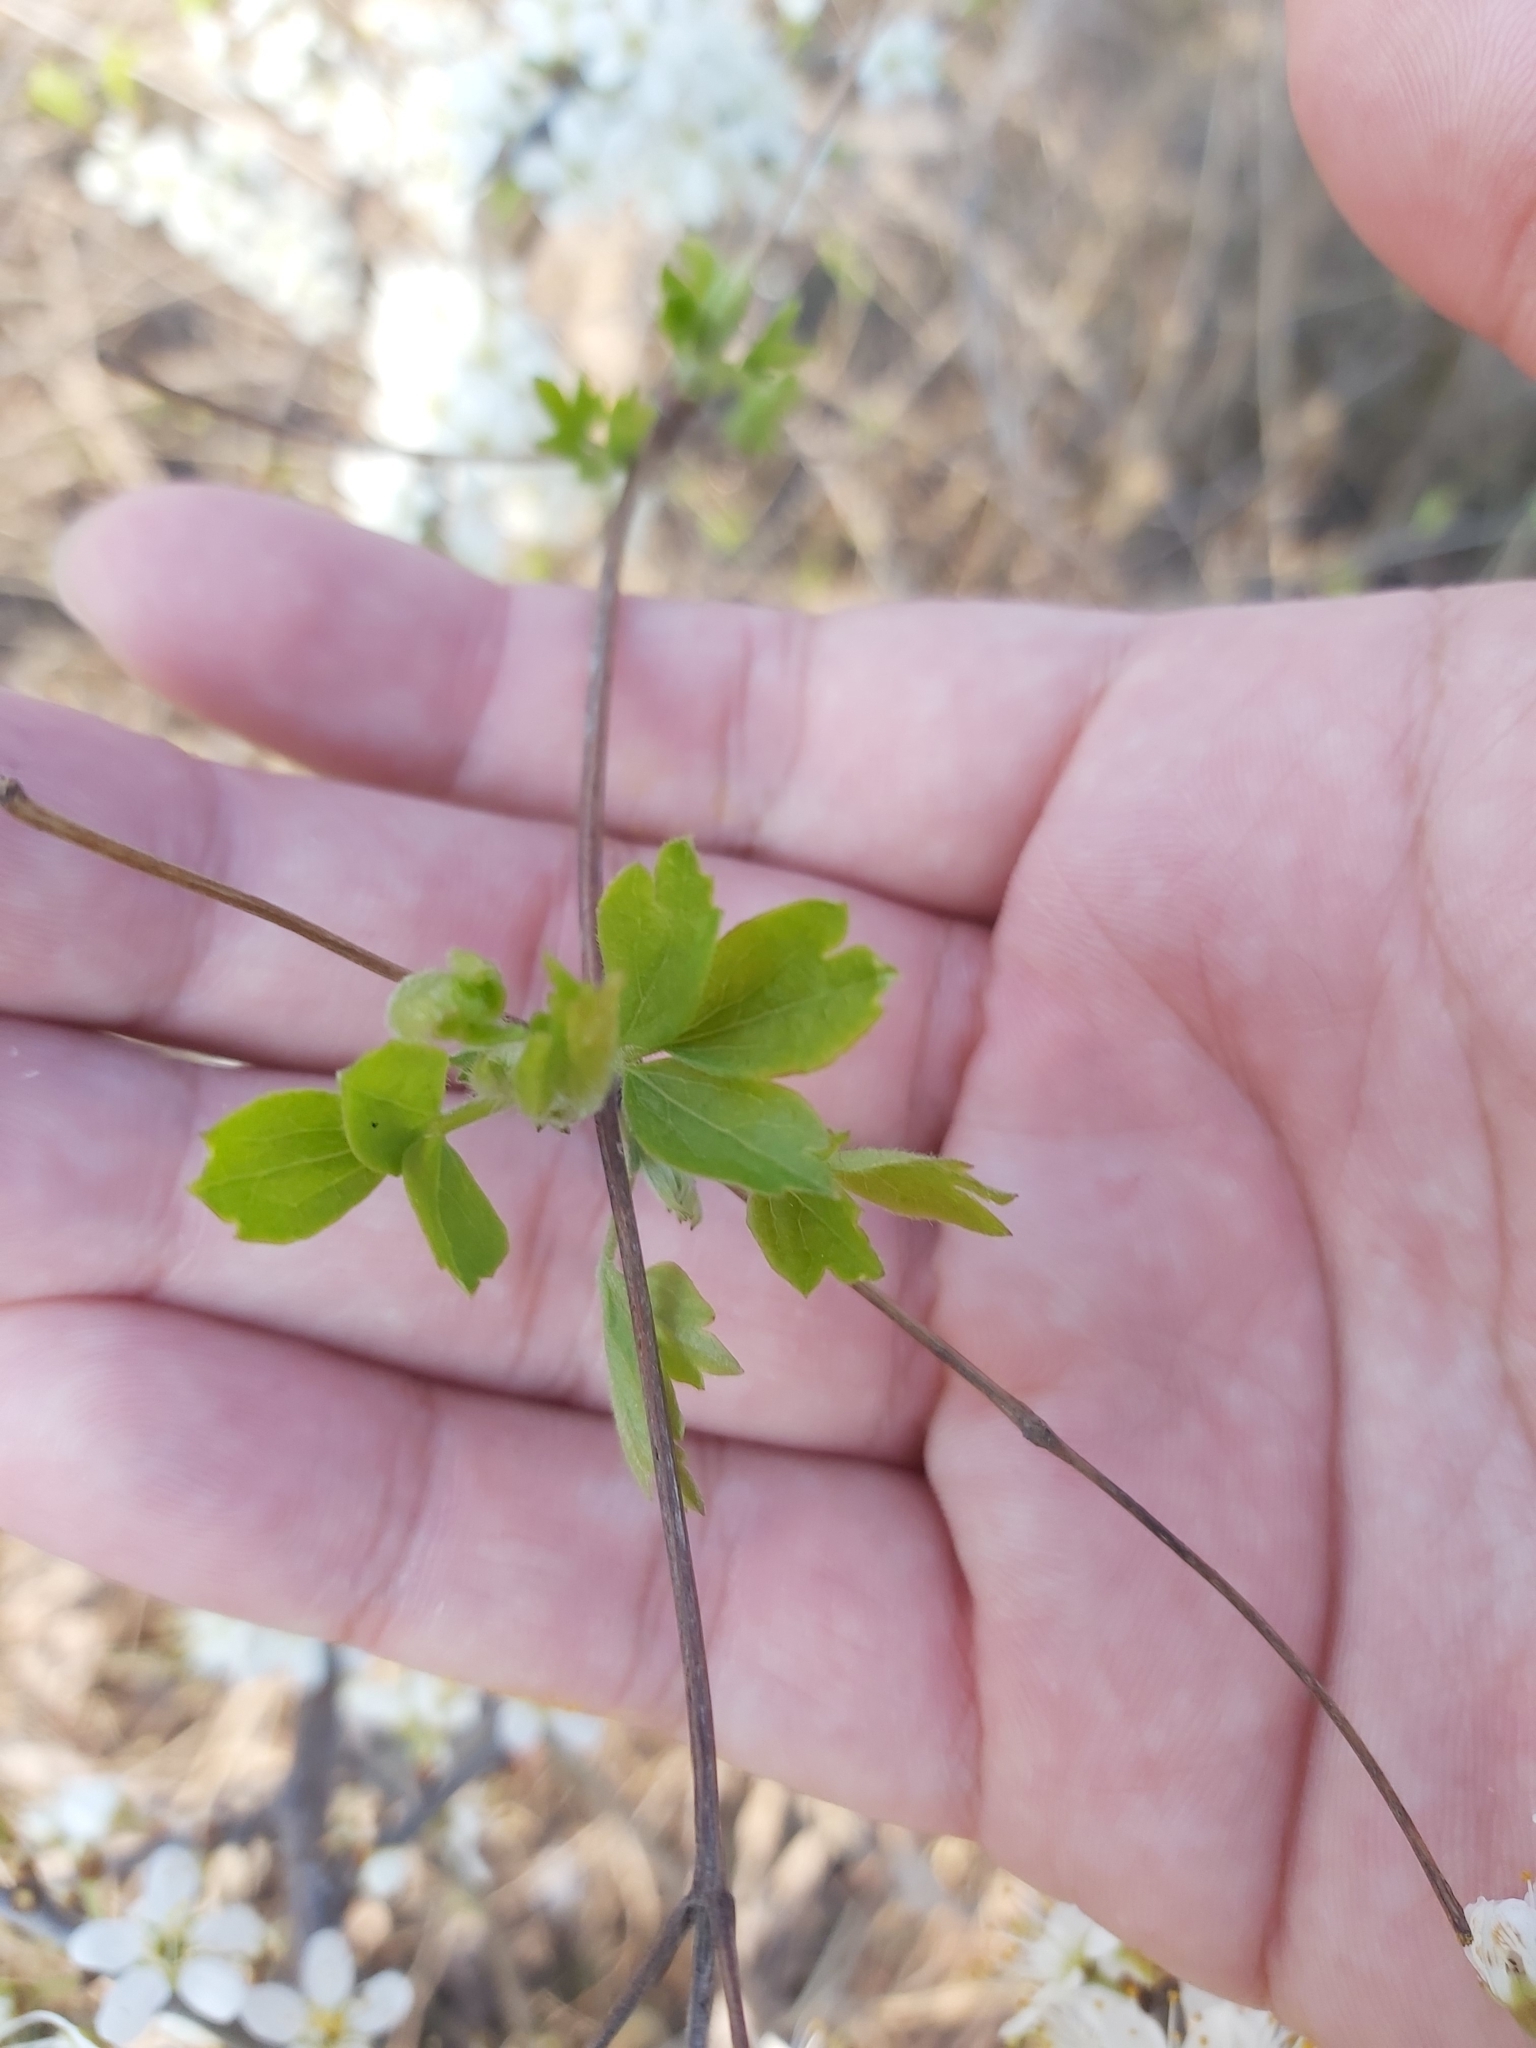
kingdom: Plantae
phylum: Tracheophyta
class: Magnoliopsida
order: Rosales
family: Rosaceae
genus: Prunus
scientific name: Prunus spinosa
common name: Blackthorn
